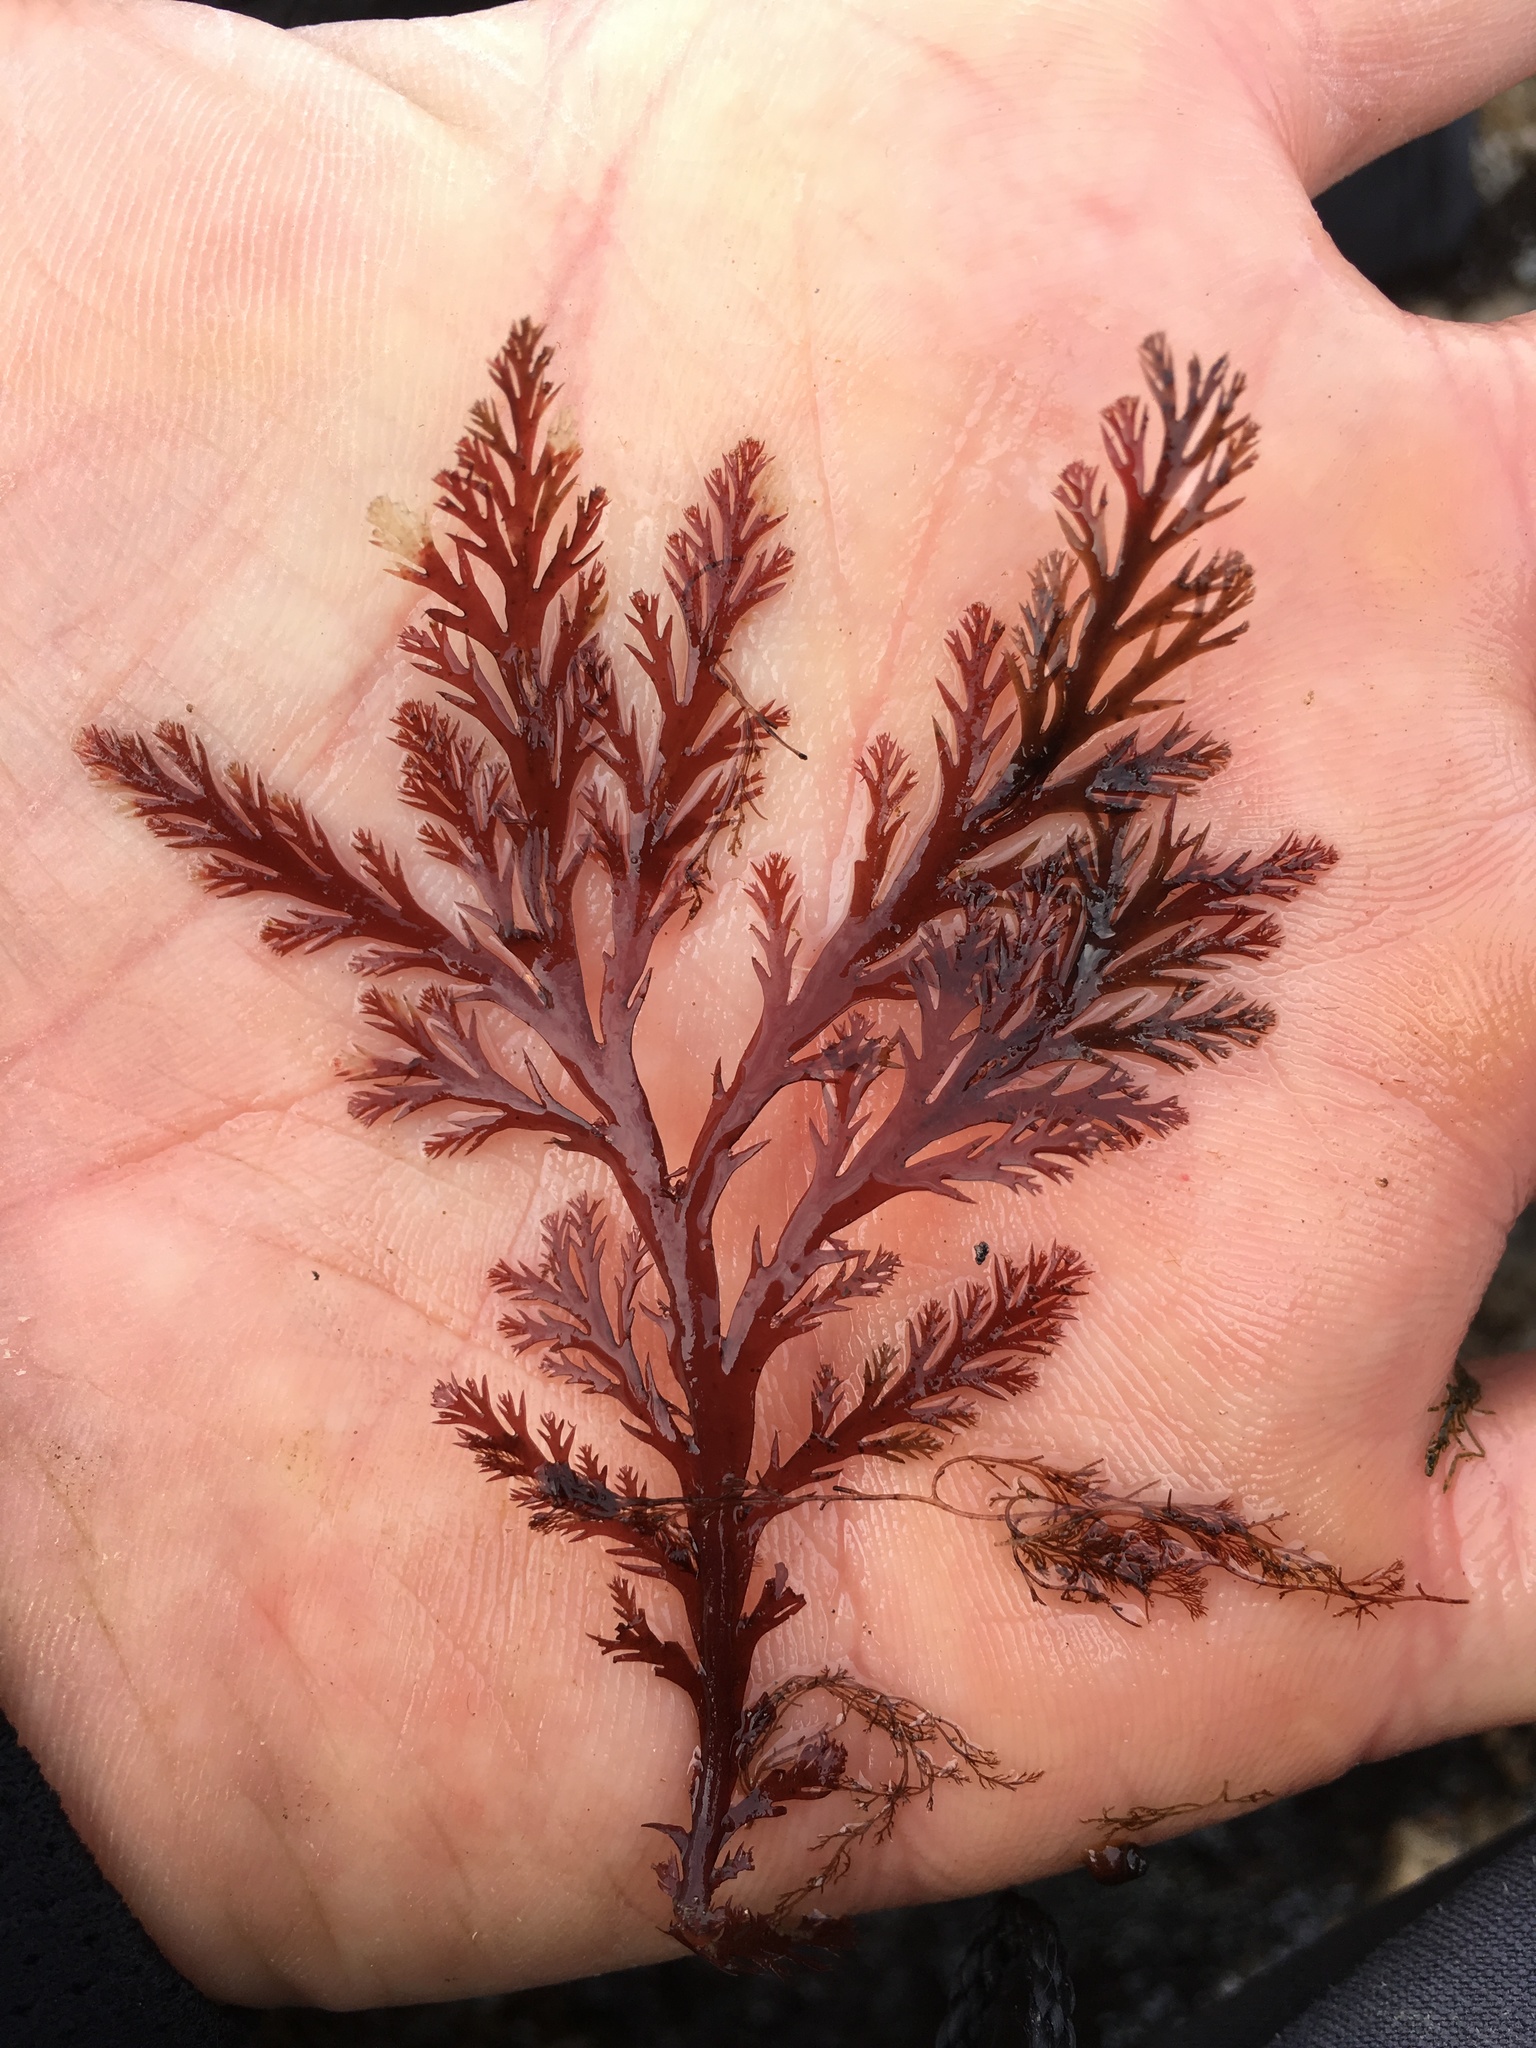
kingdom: Plantae
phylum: Rhodophyta
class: Florideophyceae
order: Ceramiales
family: Rhodomelaceae
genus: Odonthalia
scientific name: Odonthalia washingtoniensis
